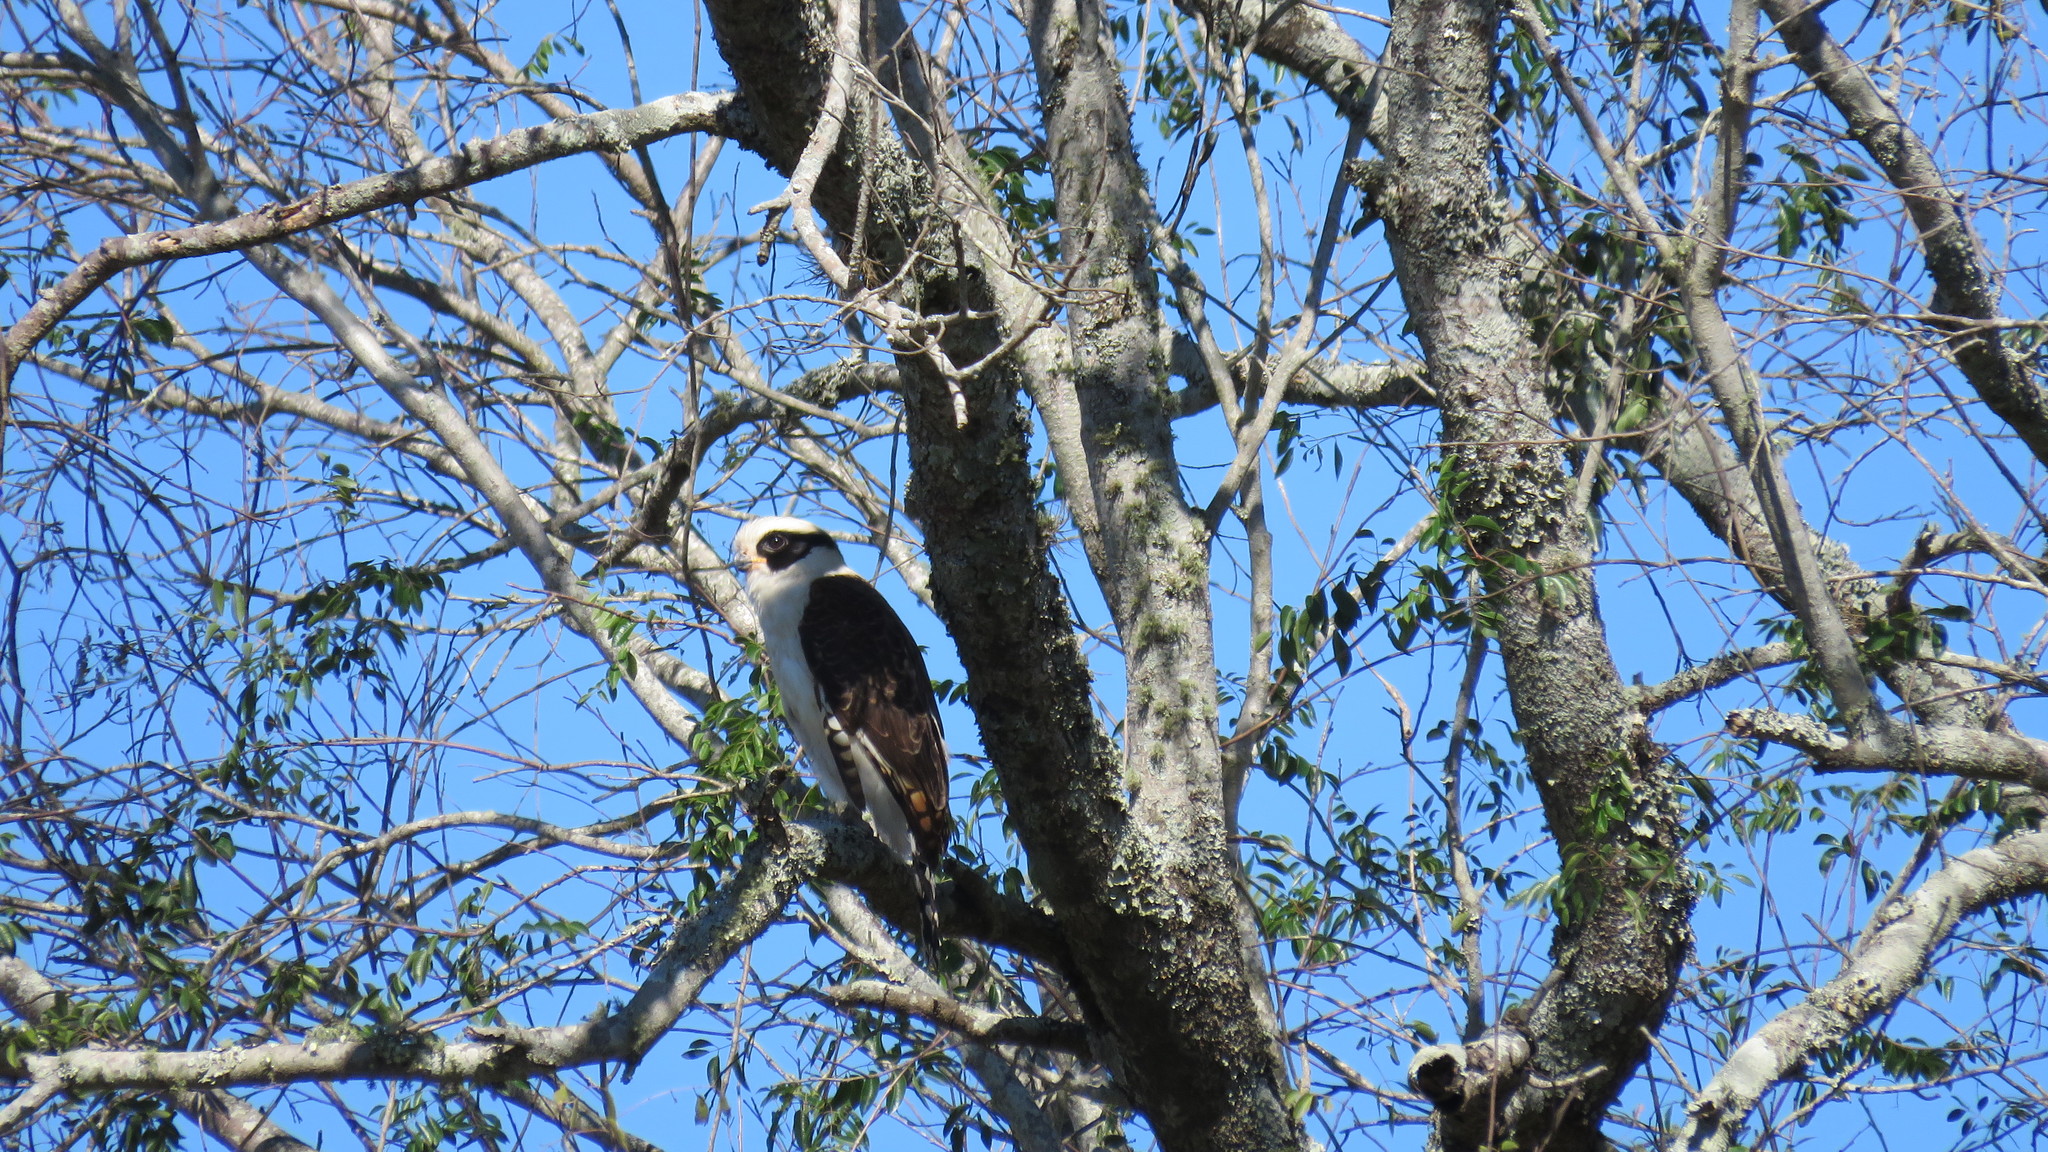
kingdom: Animalia
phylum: Chordata
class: Aves
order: Falconiformes
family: Falconidae
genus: Herpetotheres
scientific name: Herpetotheres cachinnans
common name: Laughing falcon
